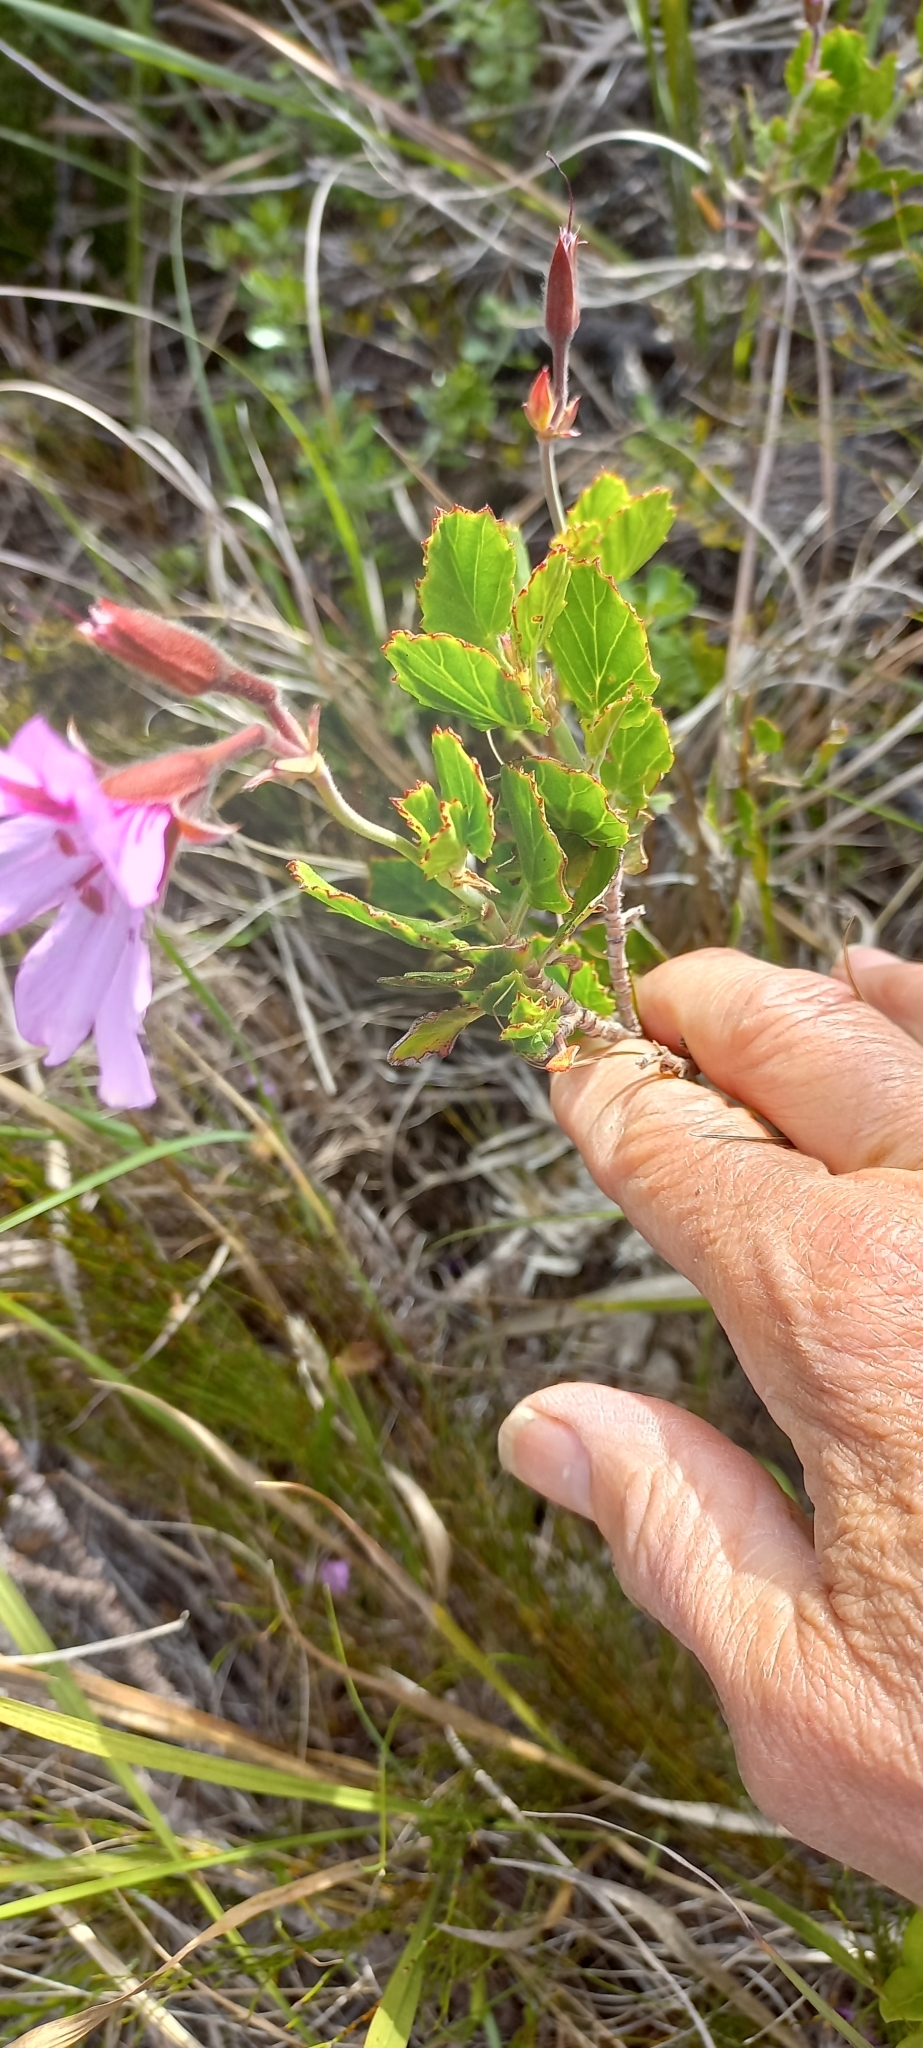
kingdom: Plantae
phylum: Tracheophyta
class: Magnoliopsida
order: Geraniales
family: Geraniaceae
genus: Pelargonium
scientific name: Pelargonium betulinum
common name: Birch-leaf pelargonium
